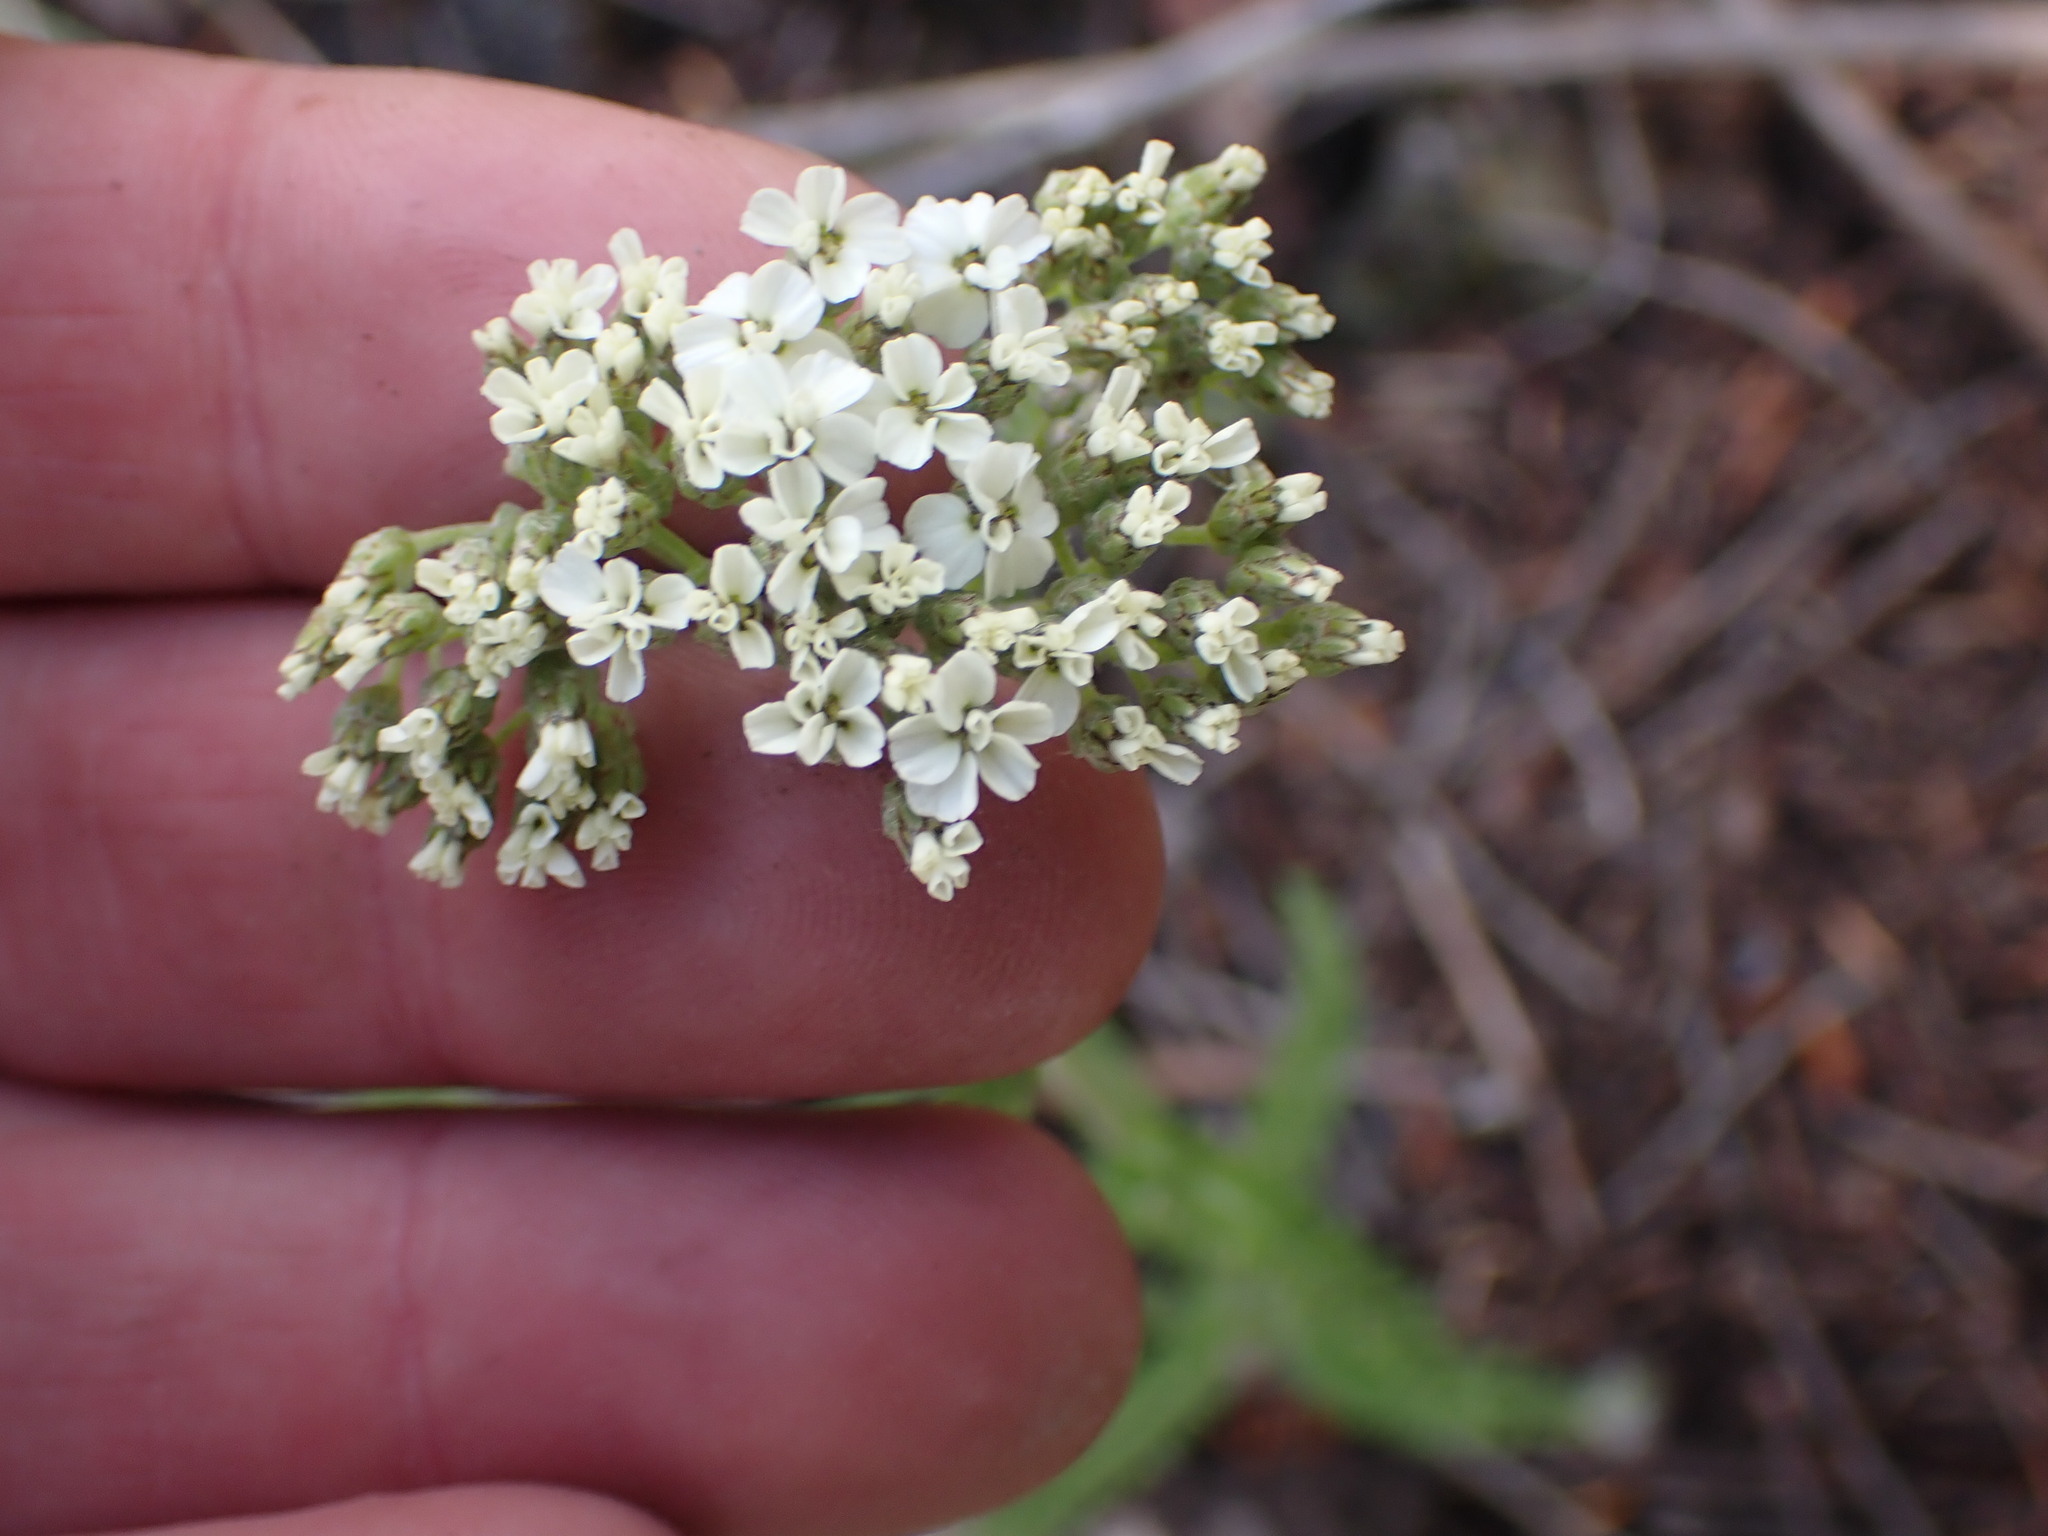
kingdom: Plantae
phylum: Tracheophyta
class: Magnoliopsida
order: Asterales
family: Asteraceae
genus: Achillea
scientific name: Achillea millefolium
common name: Yarrow
